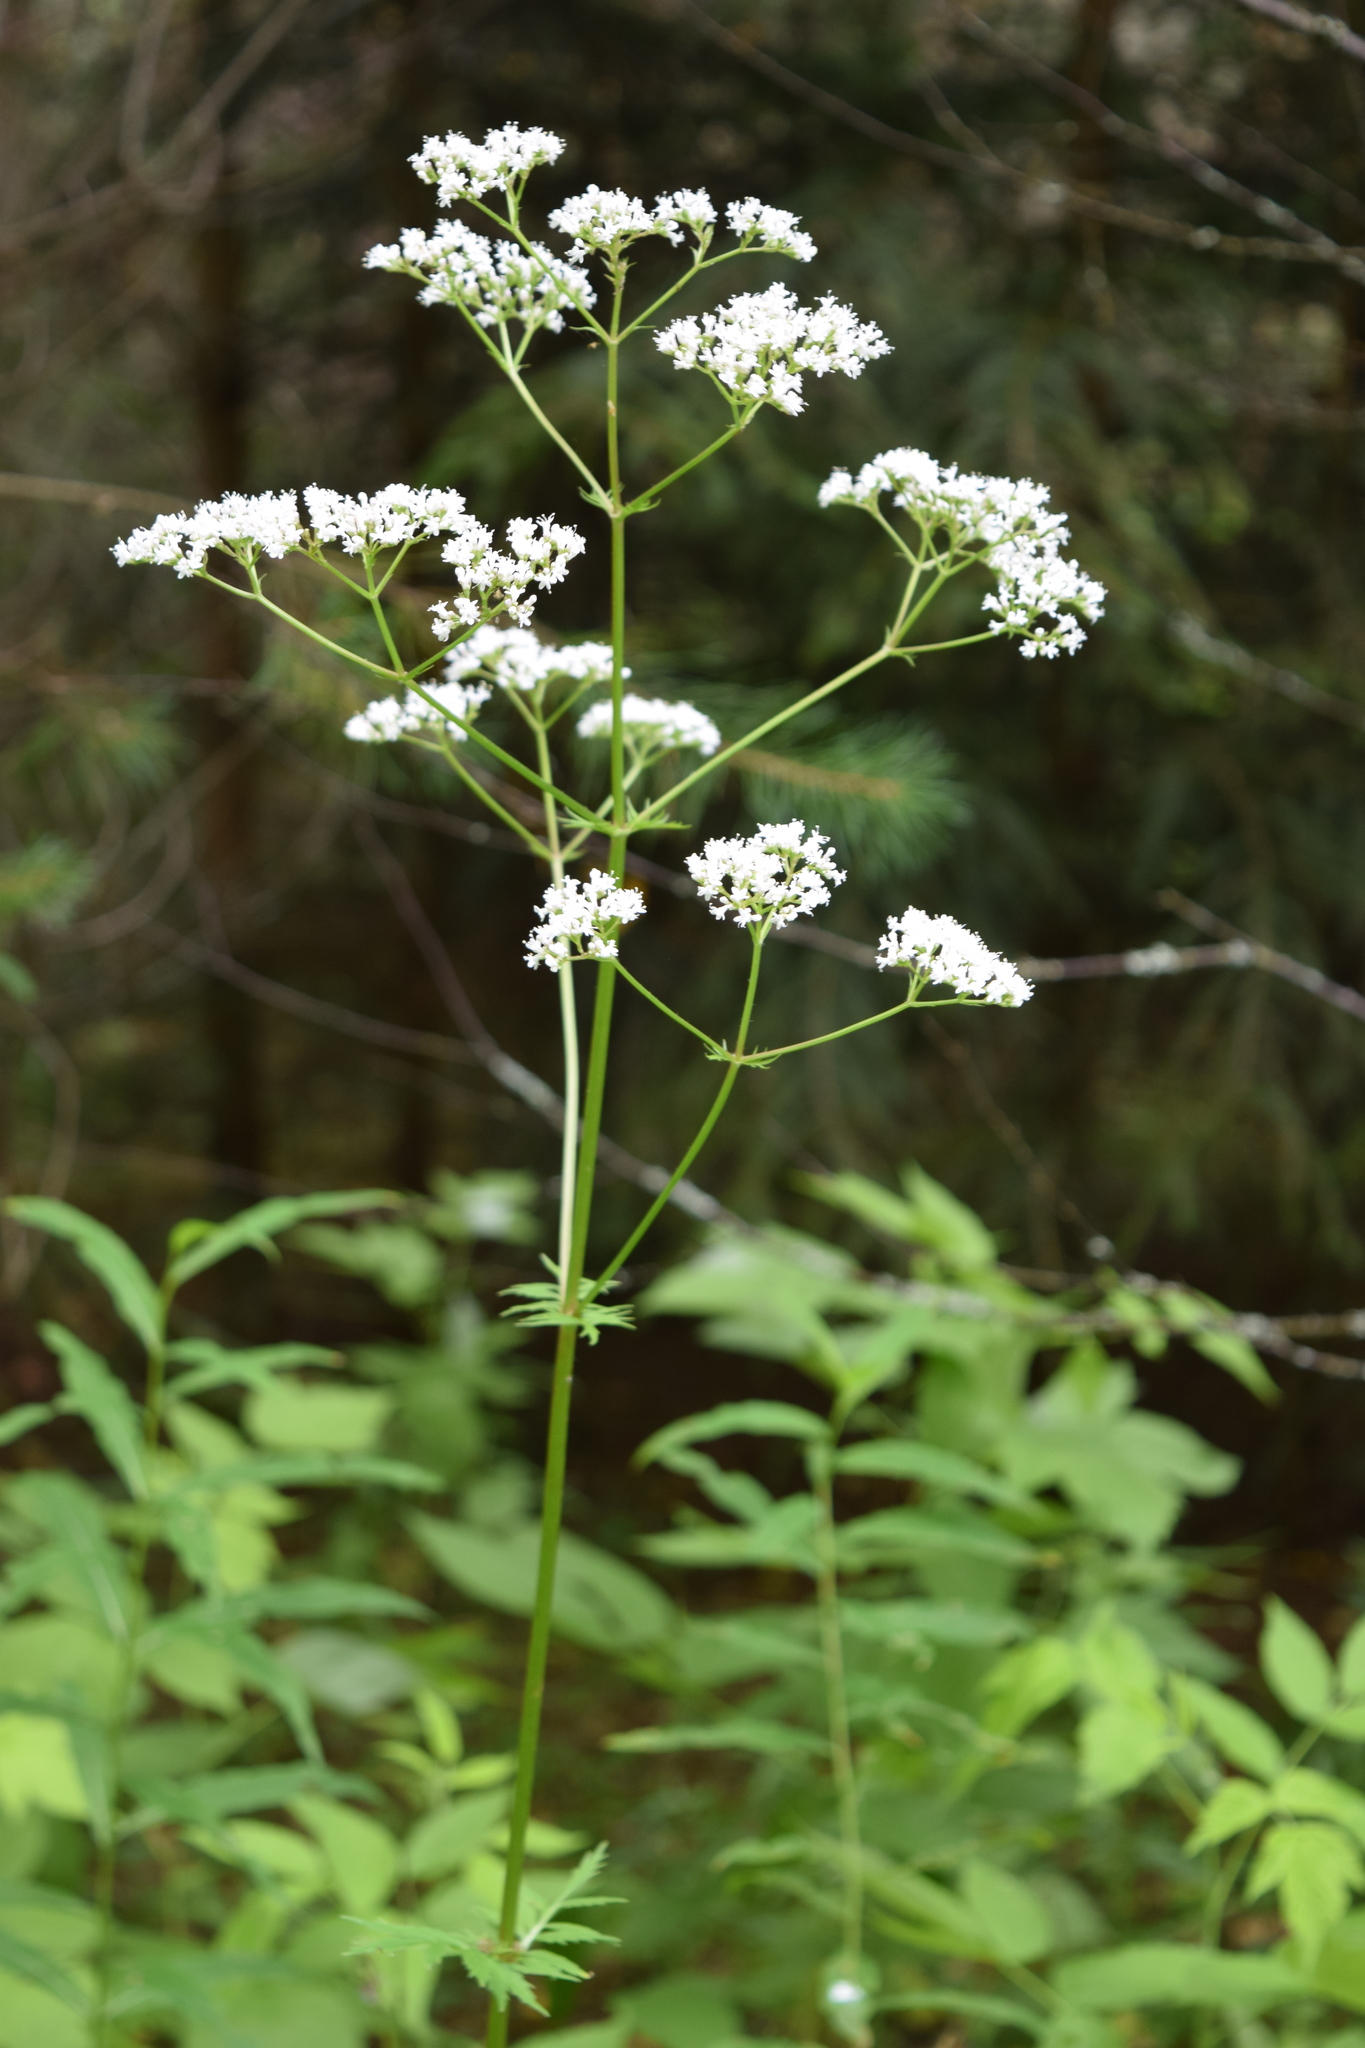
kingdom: Plantae
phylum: Tracheophyta
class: Magnoliopsida
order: Dipsacales
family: Caprifoliaceae
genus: Valeriana
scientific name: Valeriana officinalis
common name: Common valerian
